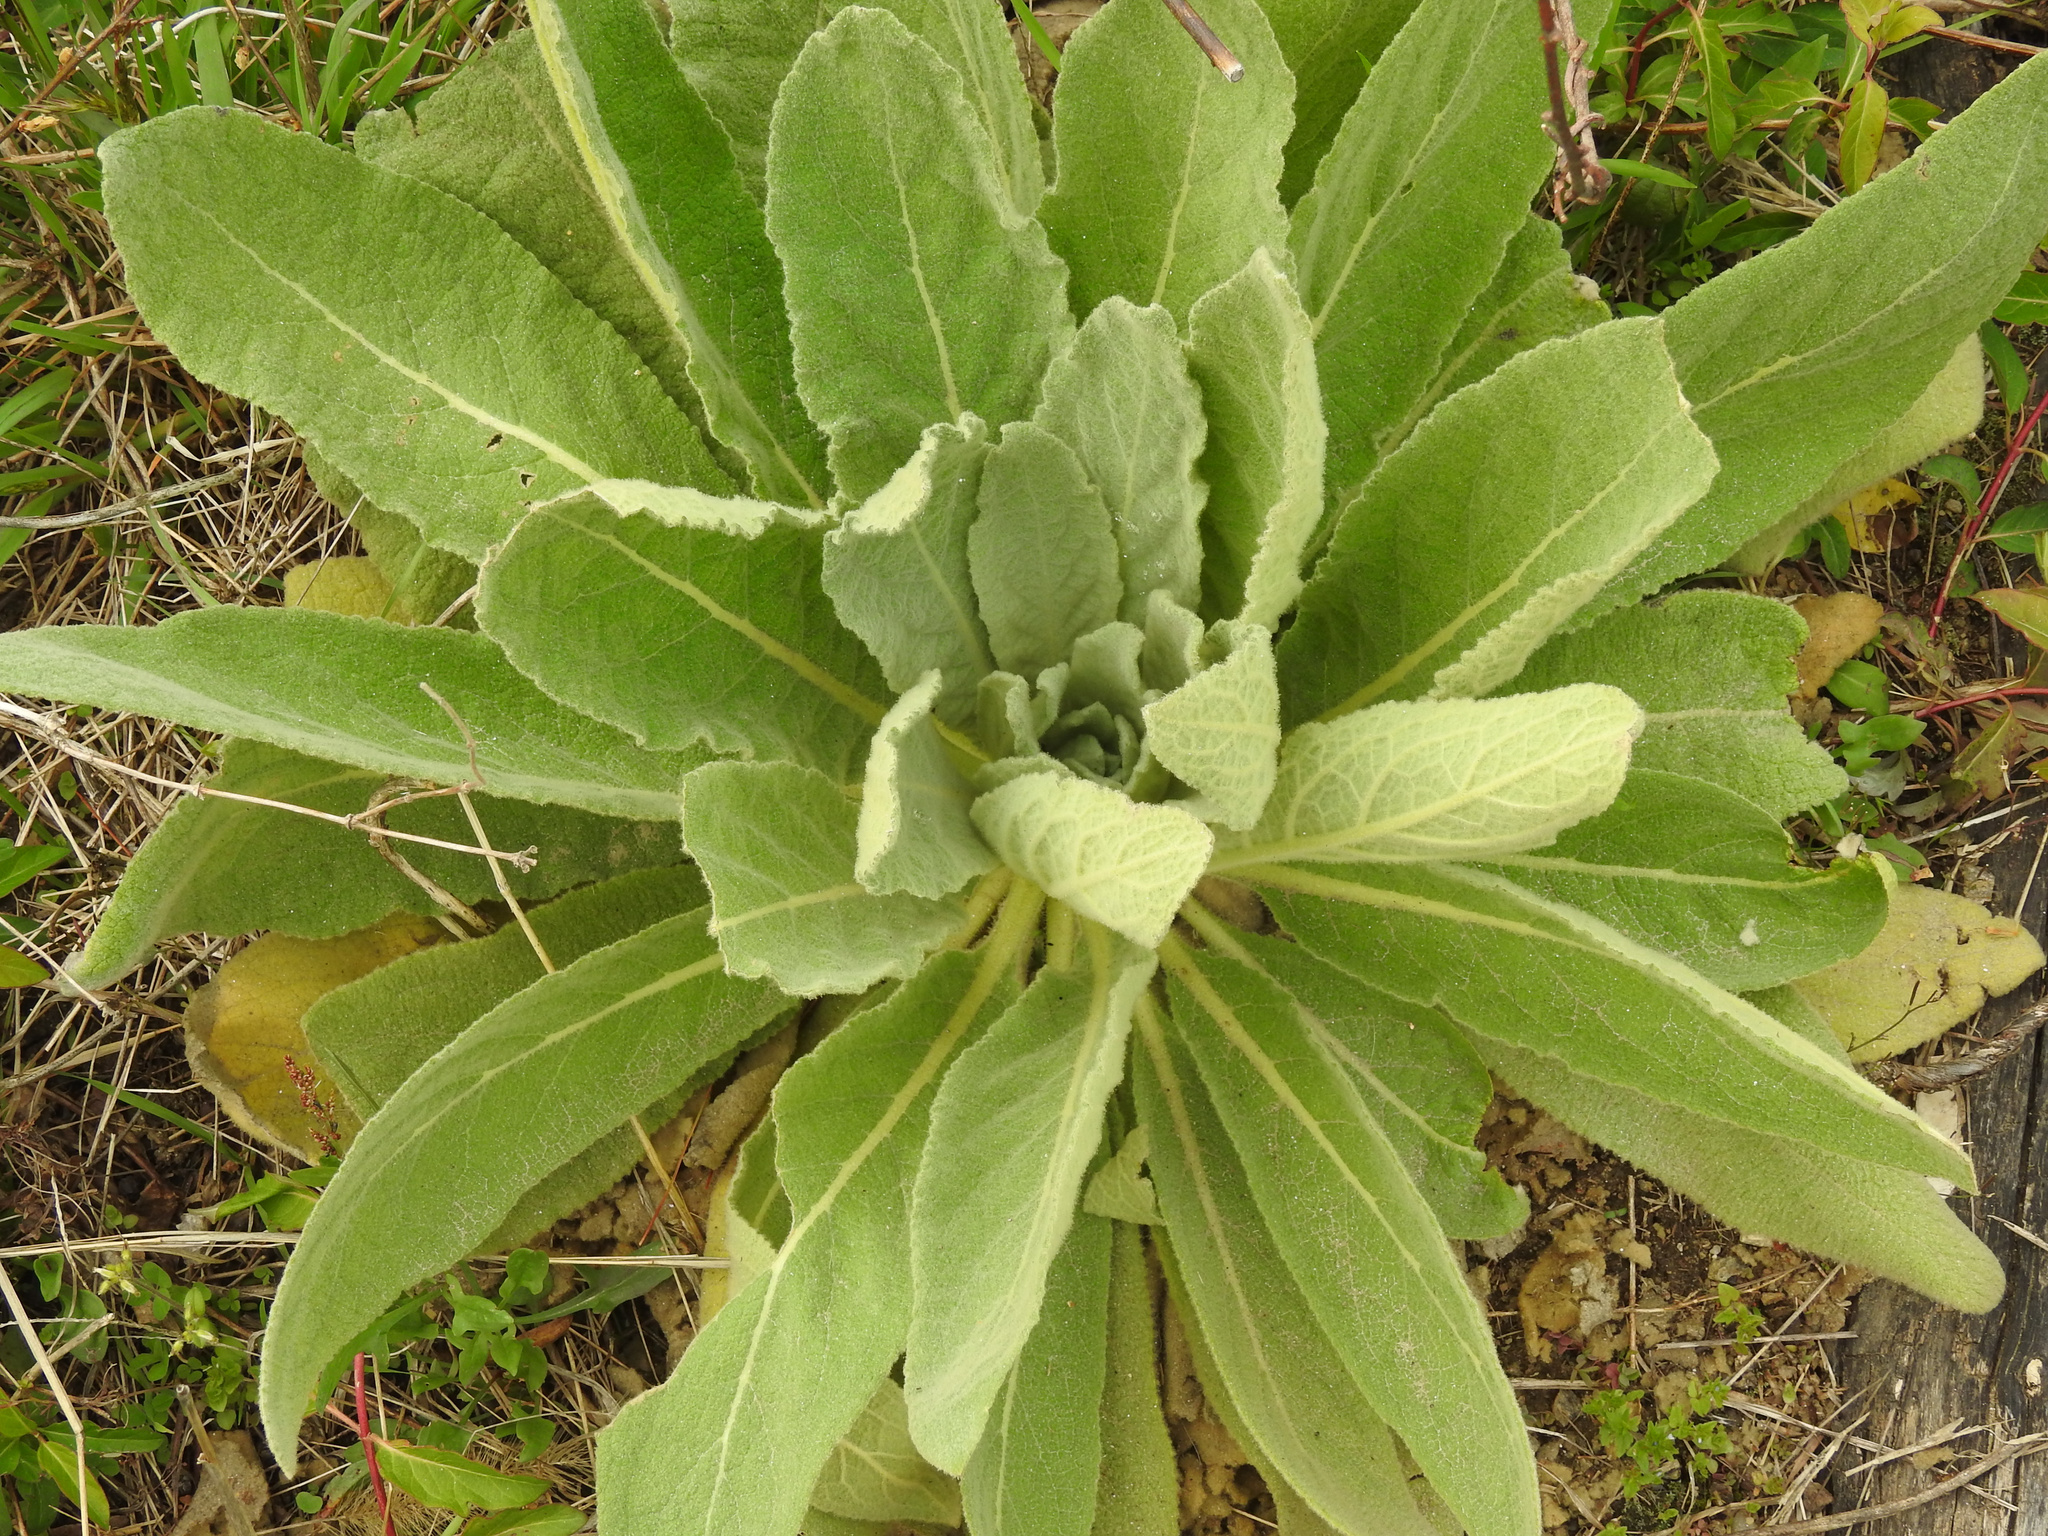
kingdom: Plantae
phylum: Tracheophyta
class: Magnoliopsida
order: Lamiales
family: Scrophulariaceae
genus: Verbascum
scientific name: Verbascum thapsus
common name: Common mullein
